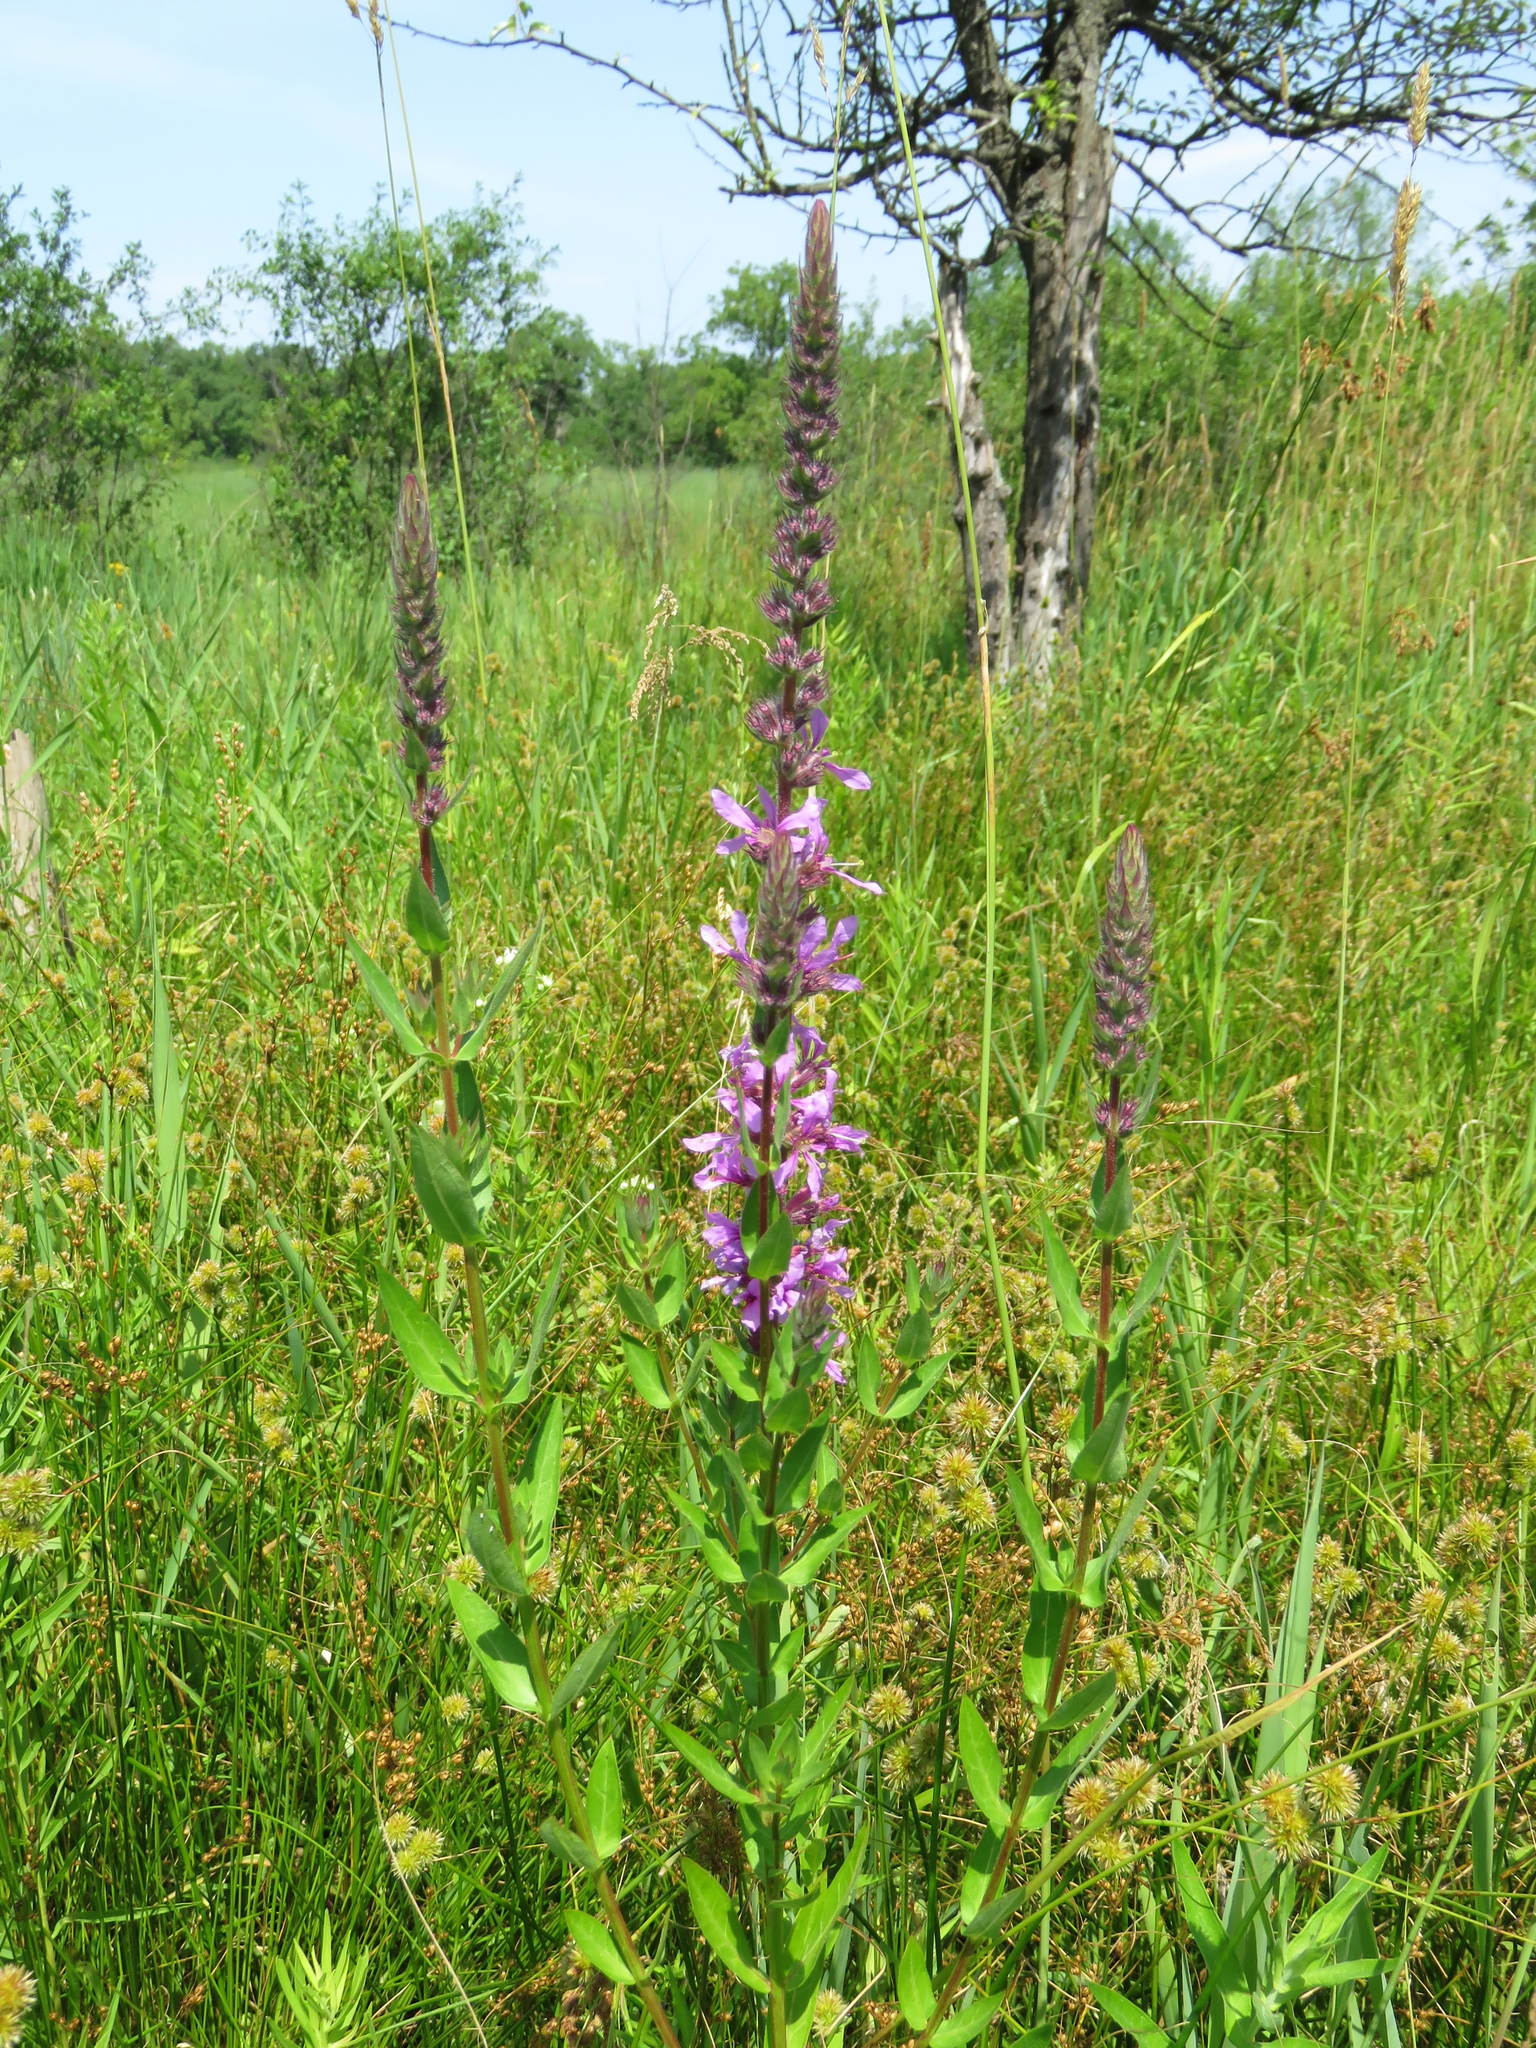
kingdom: Plantae
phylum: Tracheophyta
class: Magnoliopsida
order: Myrtales
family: Lythraceae
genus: Lythrum
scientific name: Lythrum salicaria
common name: Purple loosestrife
